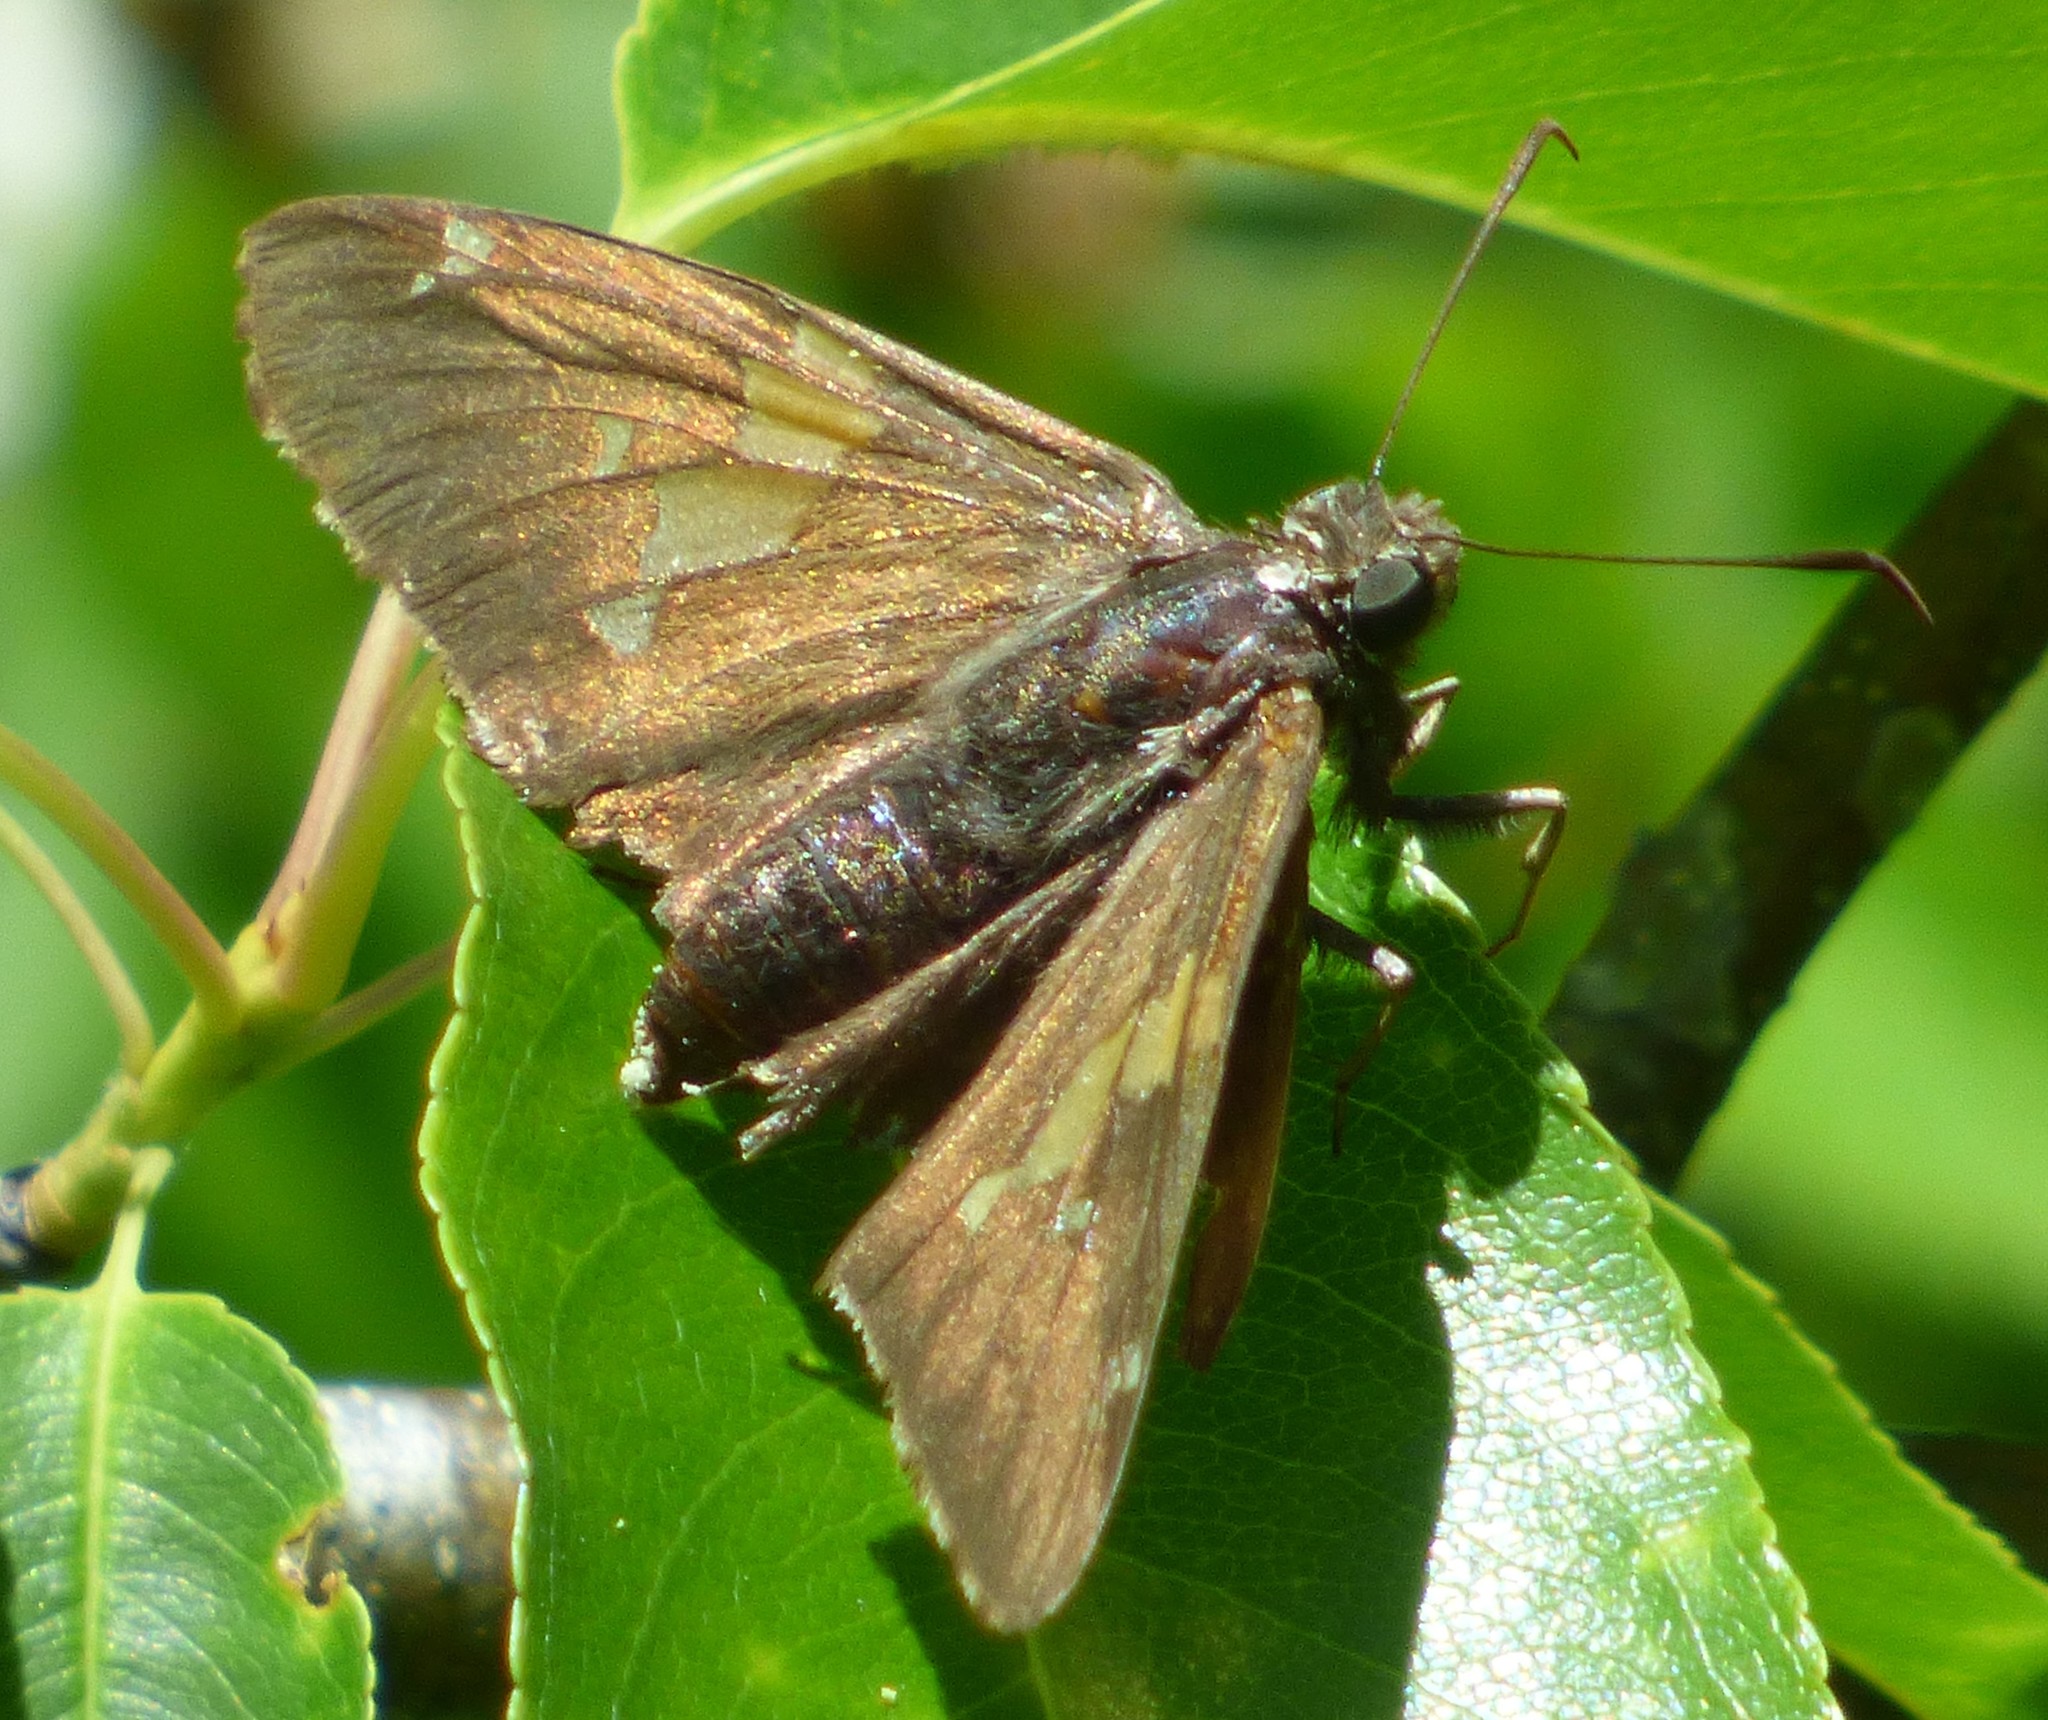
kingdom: Animalia
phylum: Arthropoda
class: Insecta
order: Lepidoptera
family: Hesperiidae
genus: Epargyreus
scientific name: Epargyreus clarus
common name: Silver-spotted skipper
